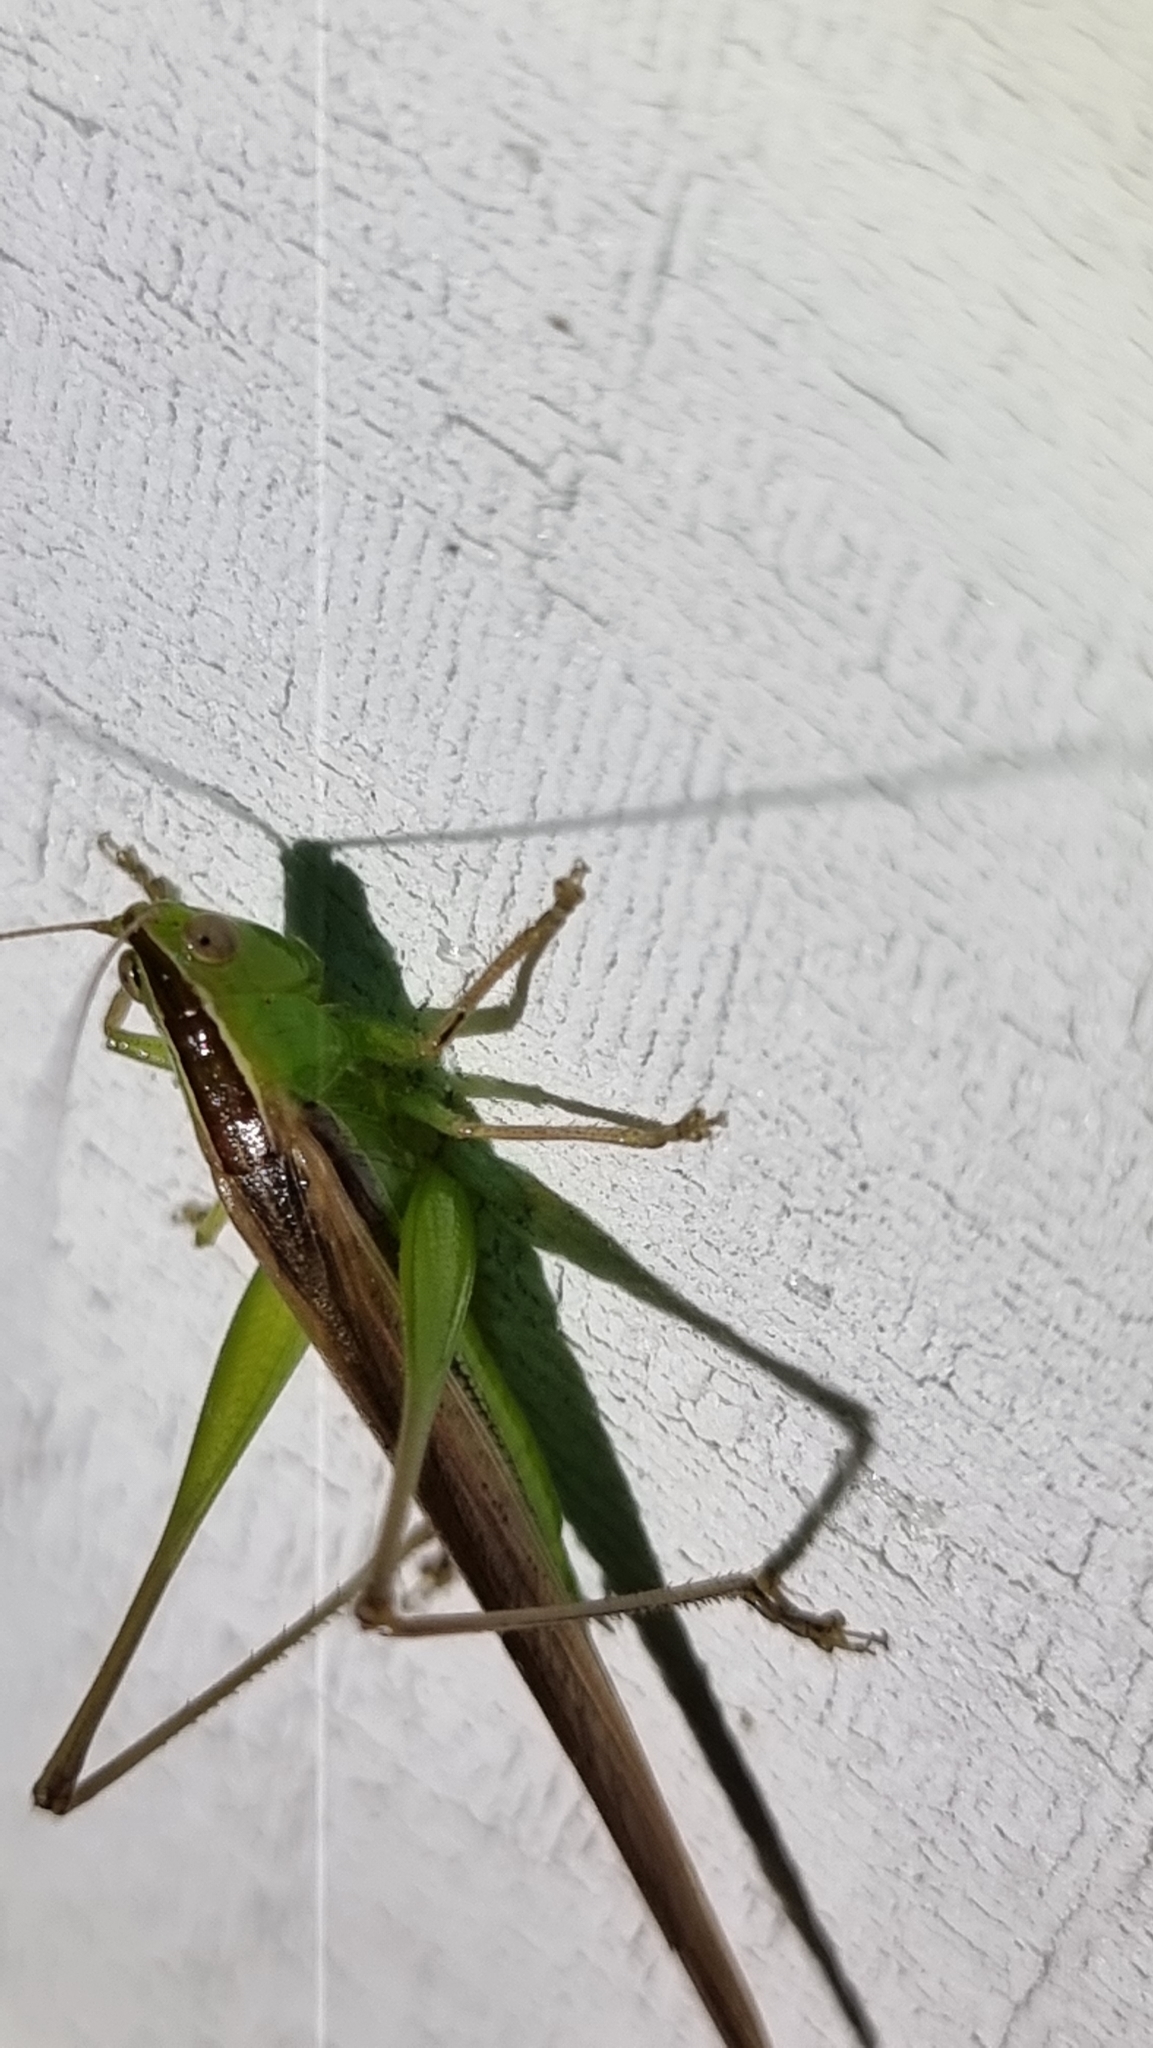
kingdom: Animalia
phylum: Arthropoda
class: Insecta
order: Orthoptera
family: Tettigoniidae
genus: Conocephalus
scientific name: Conocephalus upoluensis
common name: Upolu meadow katydid
